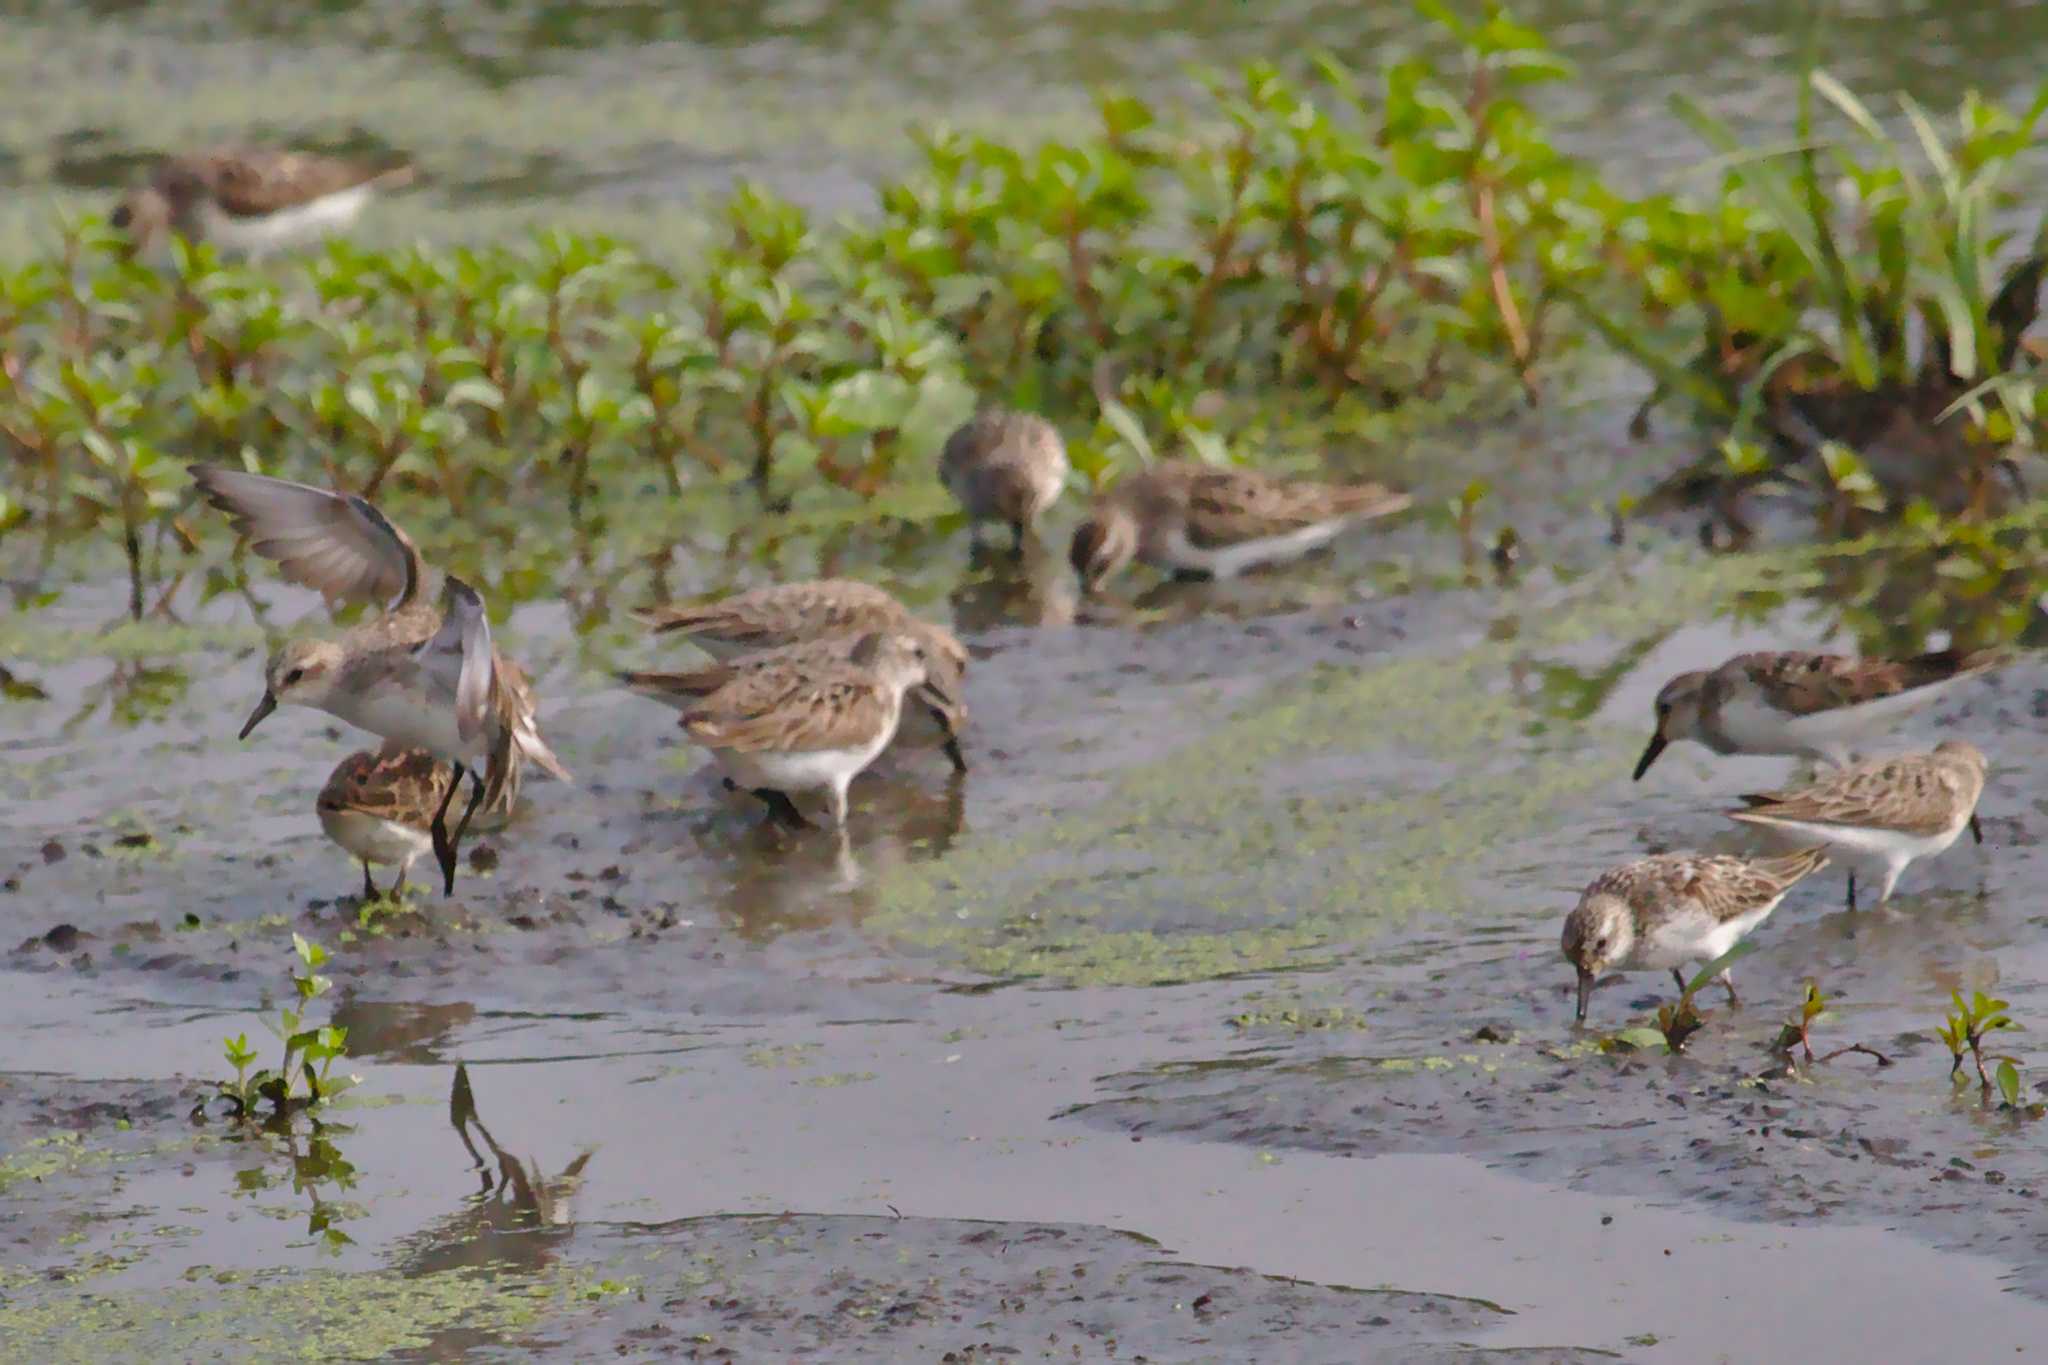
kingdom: Animalia
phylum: Chordata
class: Aves
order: Charadriiformes
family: Scolopacidae
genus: Calidris
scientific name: Calidris pusilla
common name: Semipalmated sandpiper
